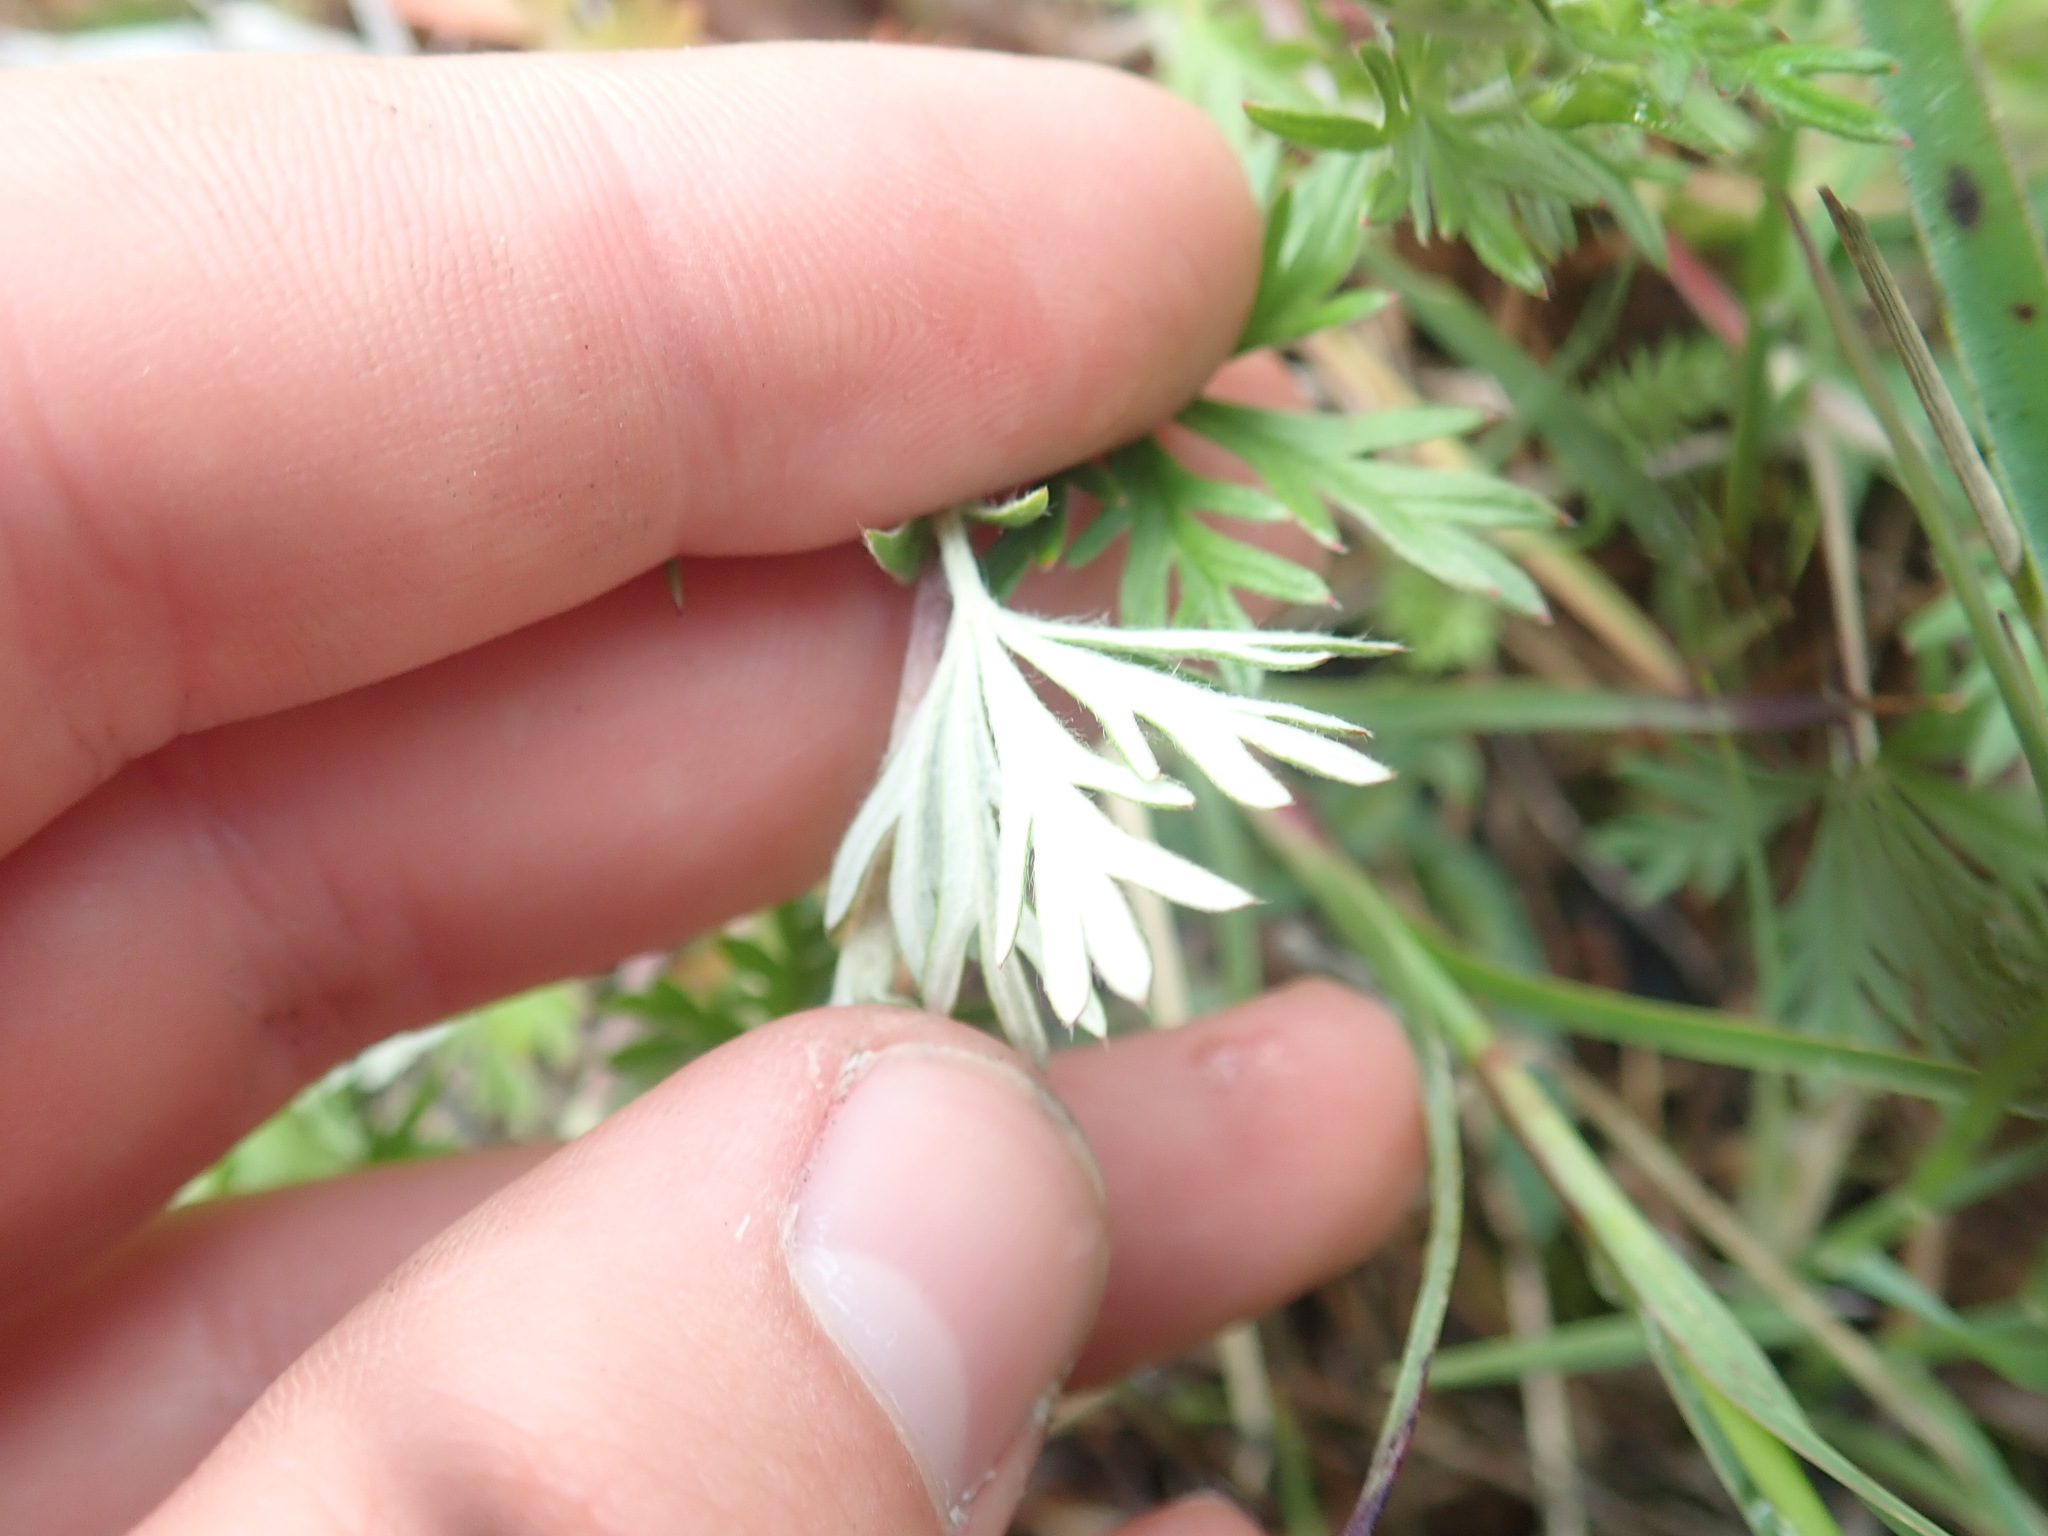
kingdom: Plantae
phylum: Tracheophyta
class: Magnoliopsida
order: Rosales
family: Rosaceae
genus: Potentilla
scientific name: Potentilla argentea
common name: Hoary cinquefoil
